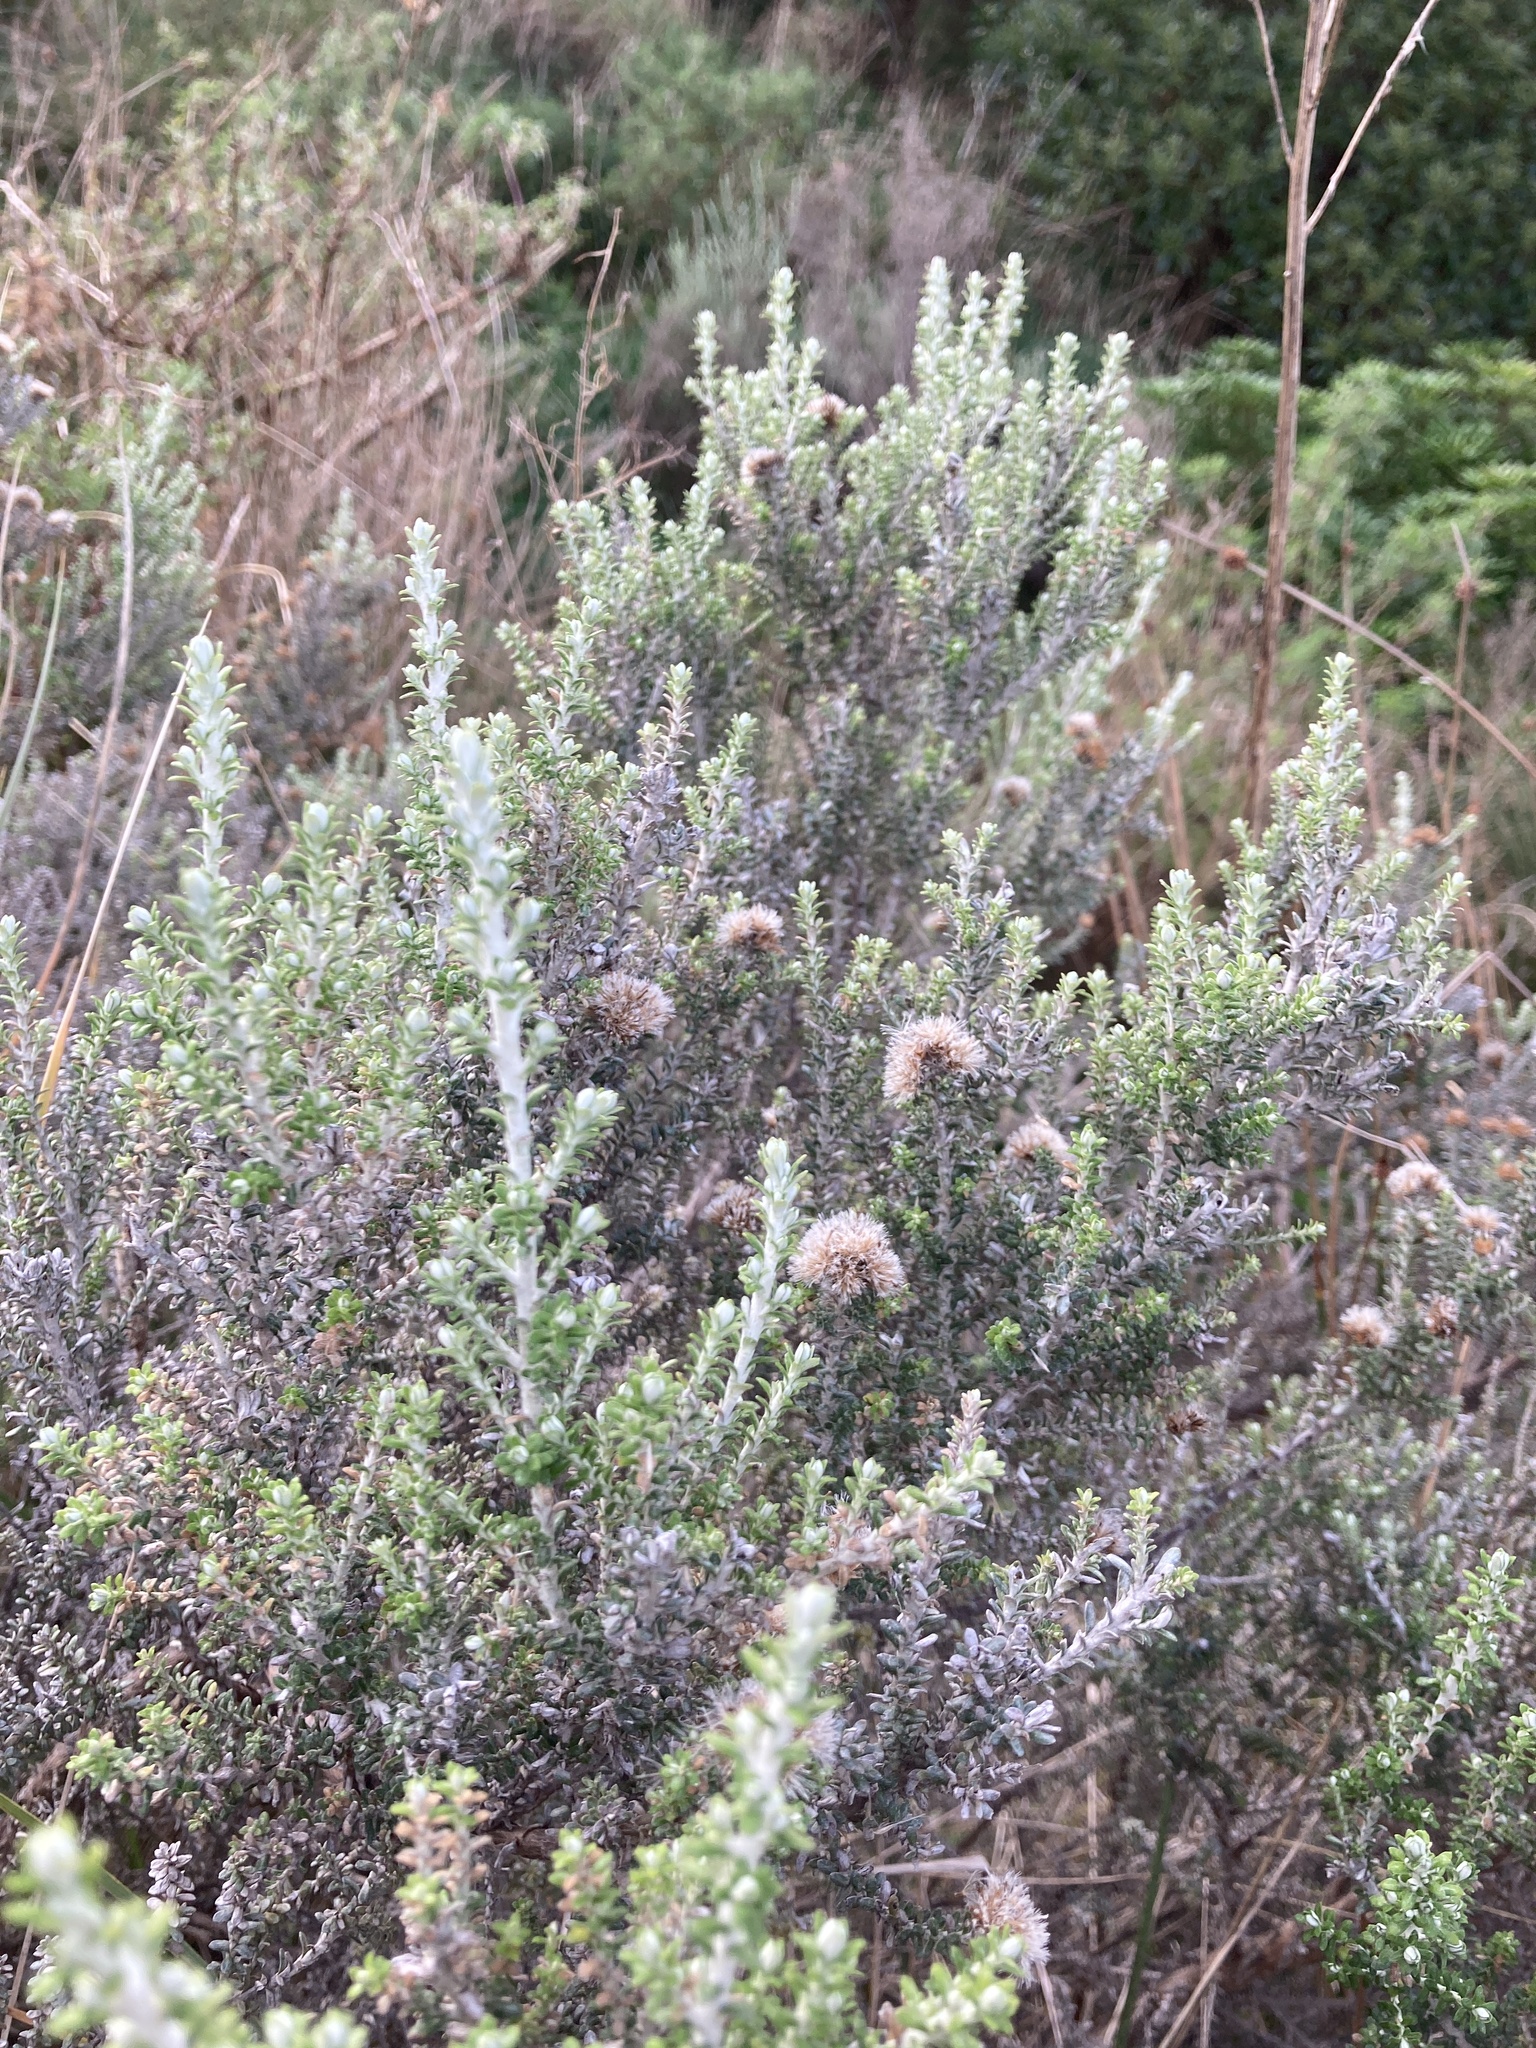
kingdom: Plantae
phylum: Tracheophyta
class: Magnoliopsida
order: Asterales
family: Asteraceae
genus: Ozothamnus
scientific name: Ozothamnus leptophyllus
